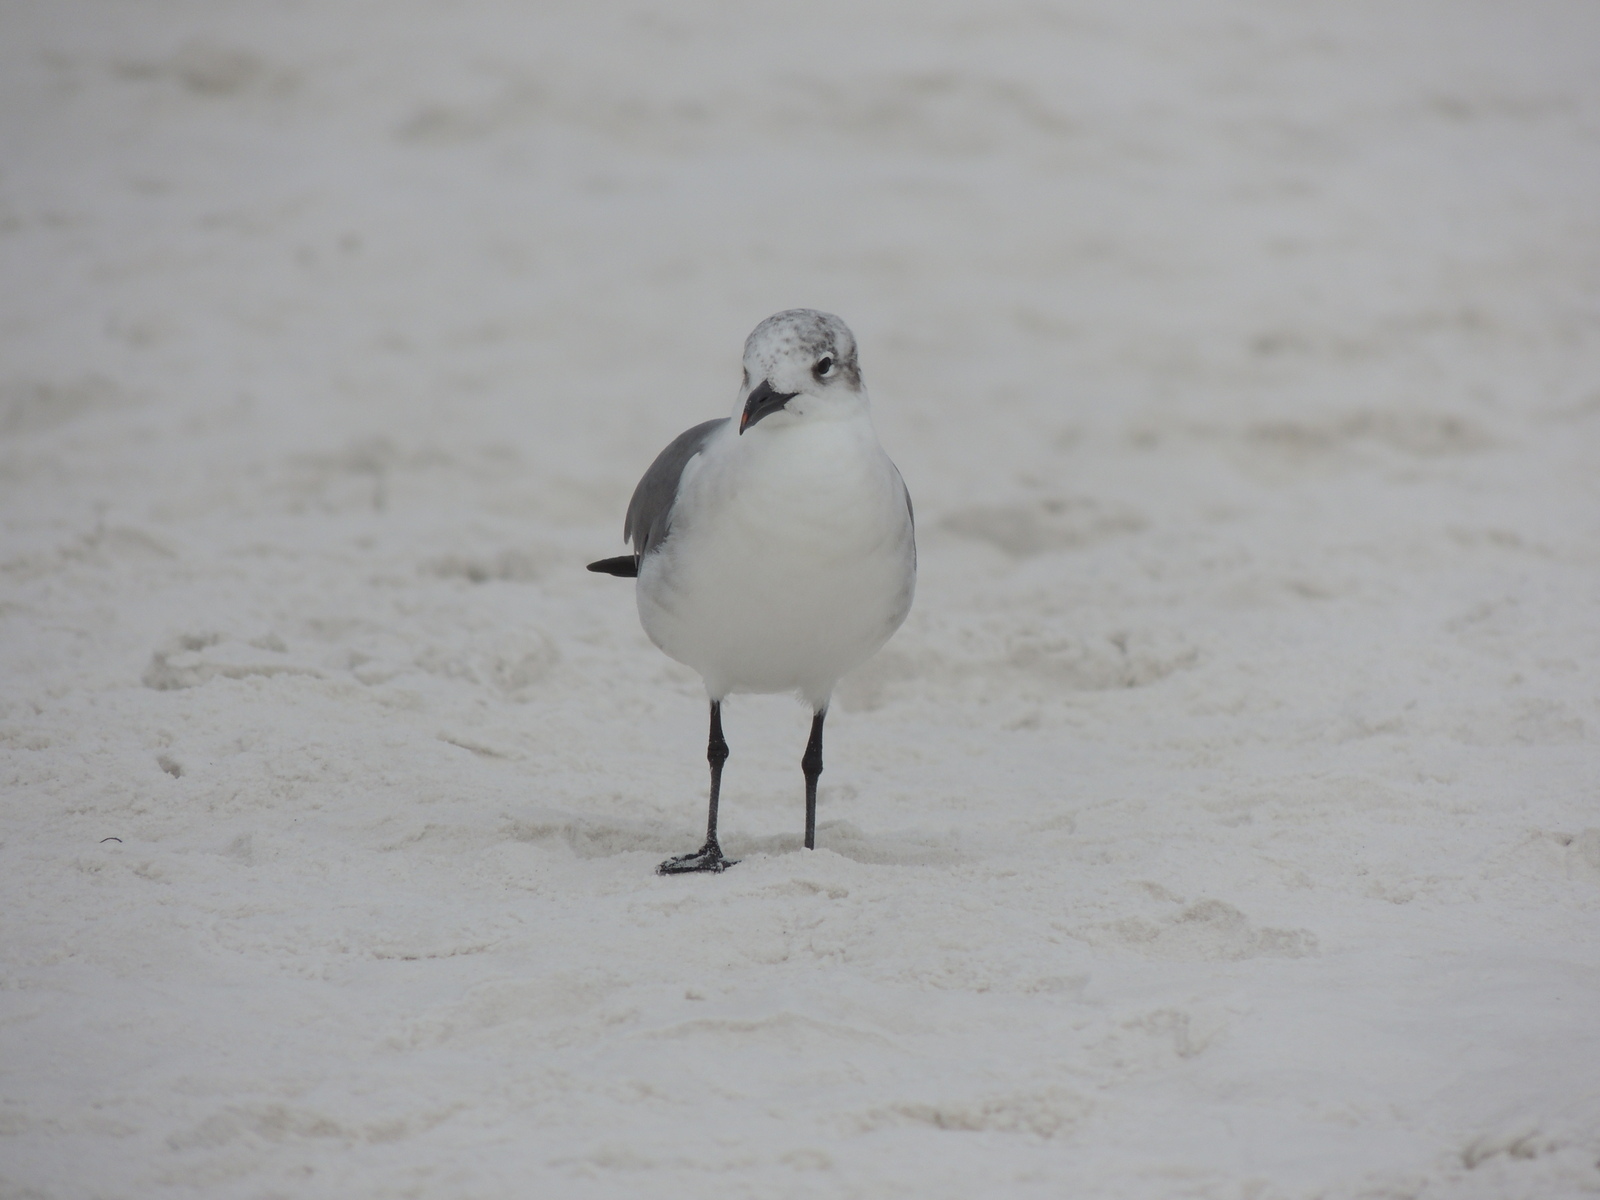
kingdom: Animalia
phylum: Chordata
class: Aves
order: Charadriiformes
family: Laridae
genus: Leucophaeus
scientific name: Leucophaeus atricilla
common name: Laughing gull
